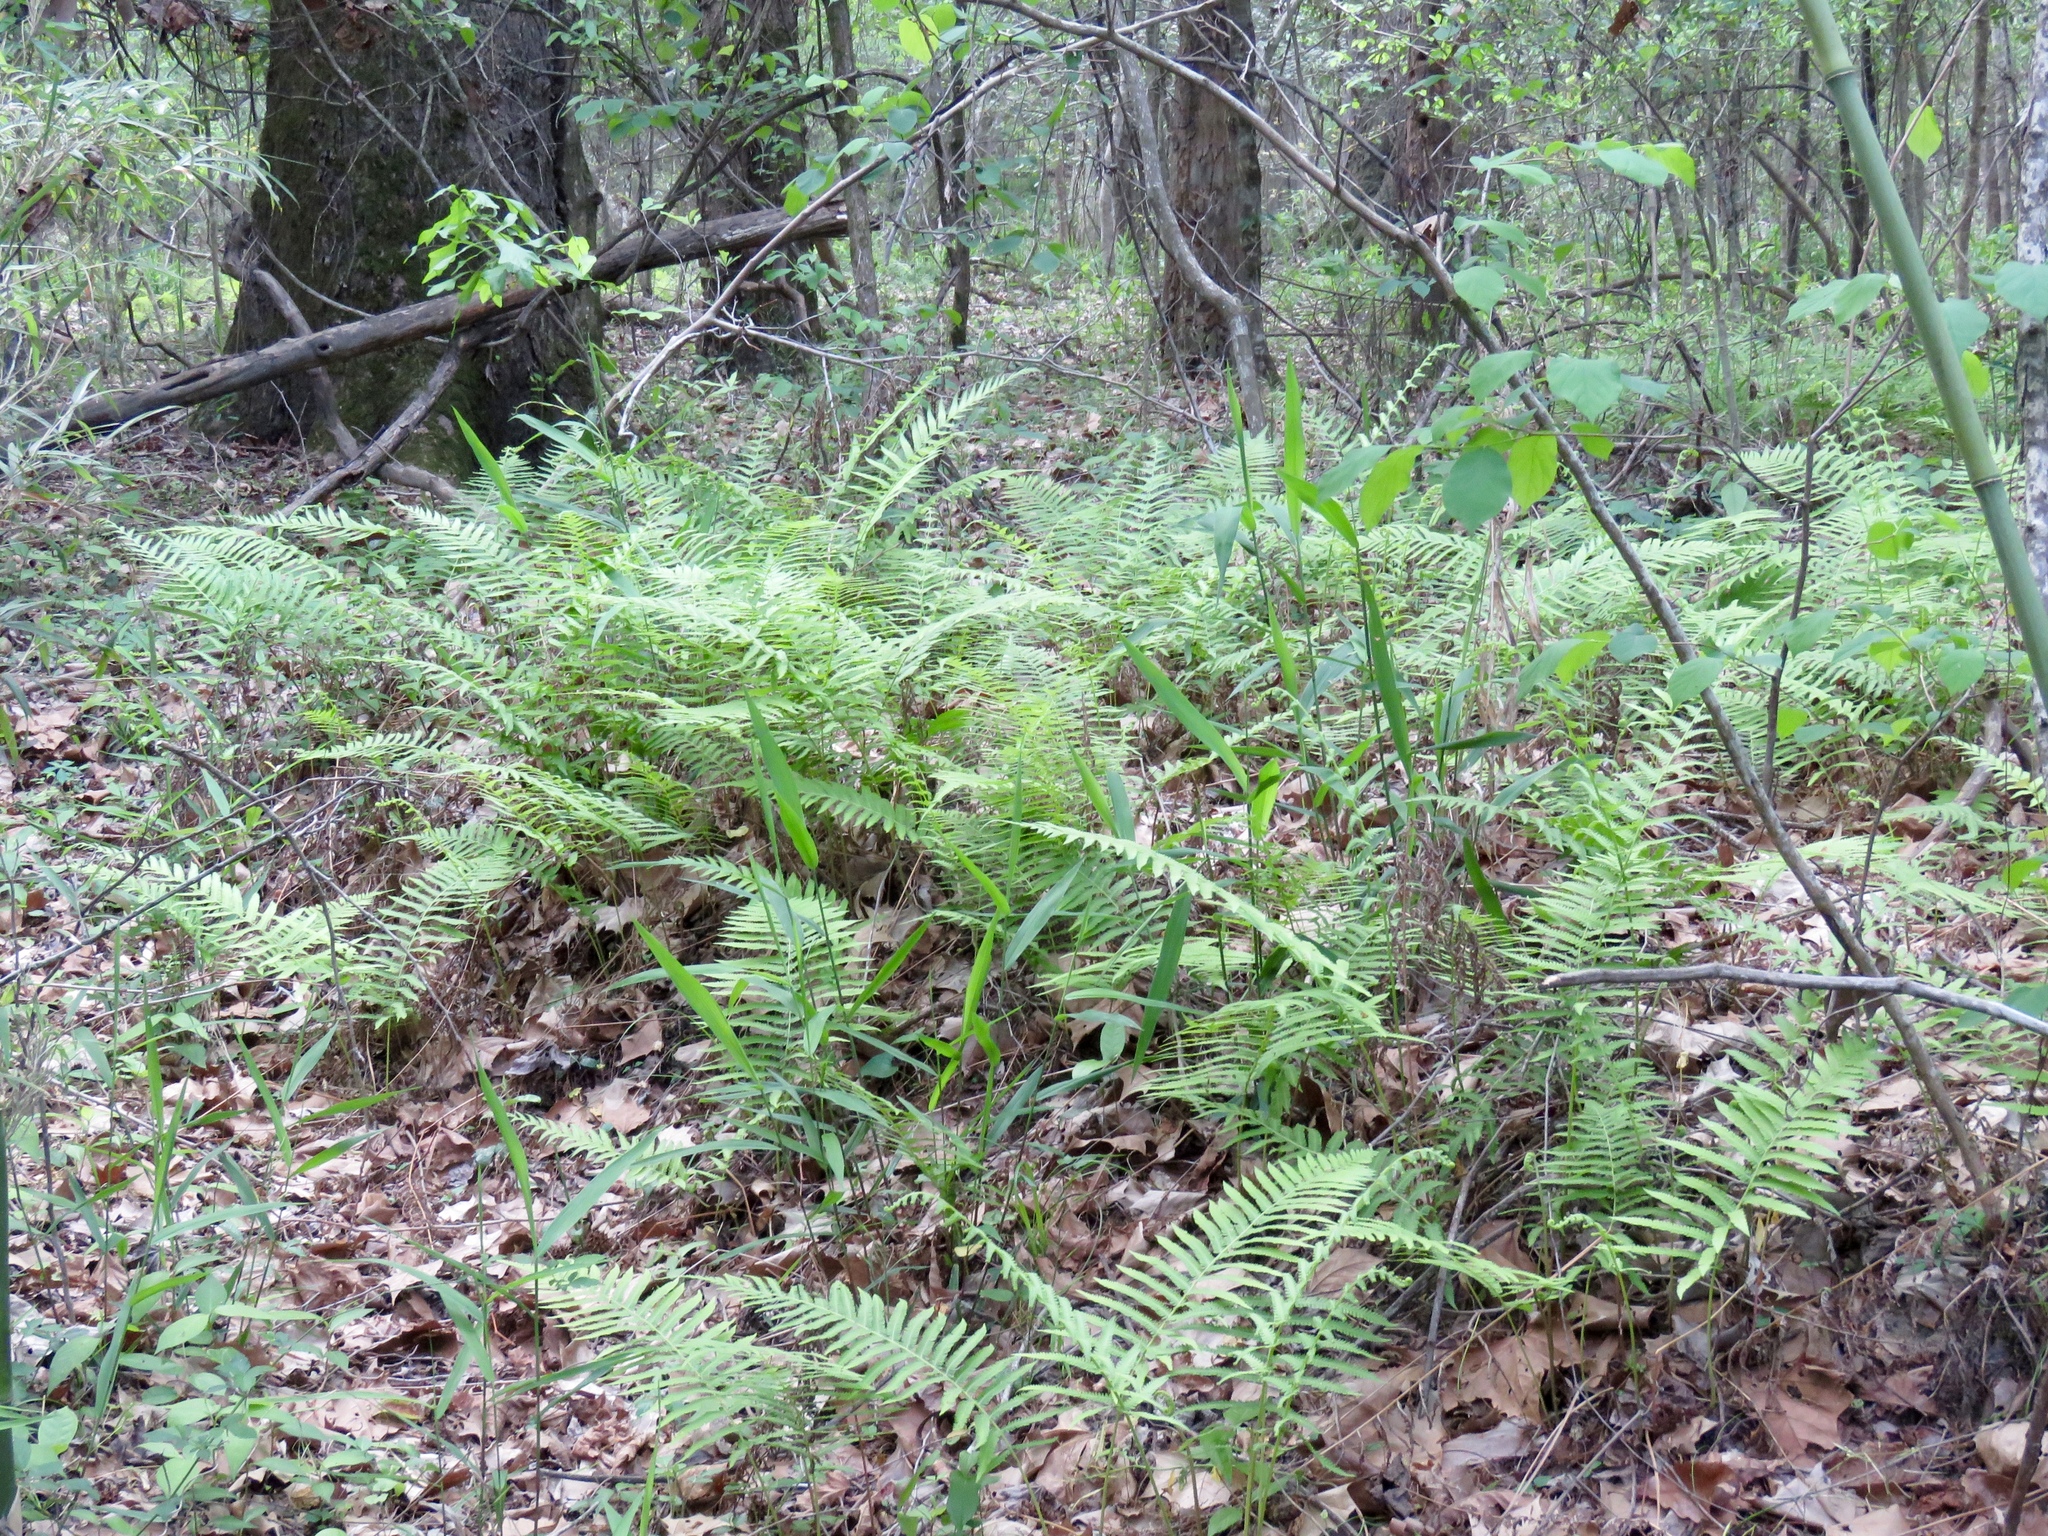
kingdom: Plantae
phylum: Tracheophyta
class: Polypodiopsida
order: Polypodiales
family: Thelypteridaceae
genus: Pelazoneuron
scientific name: Pelazoneuron kunthii
